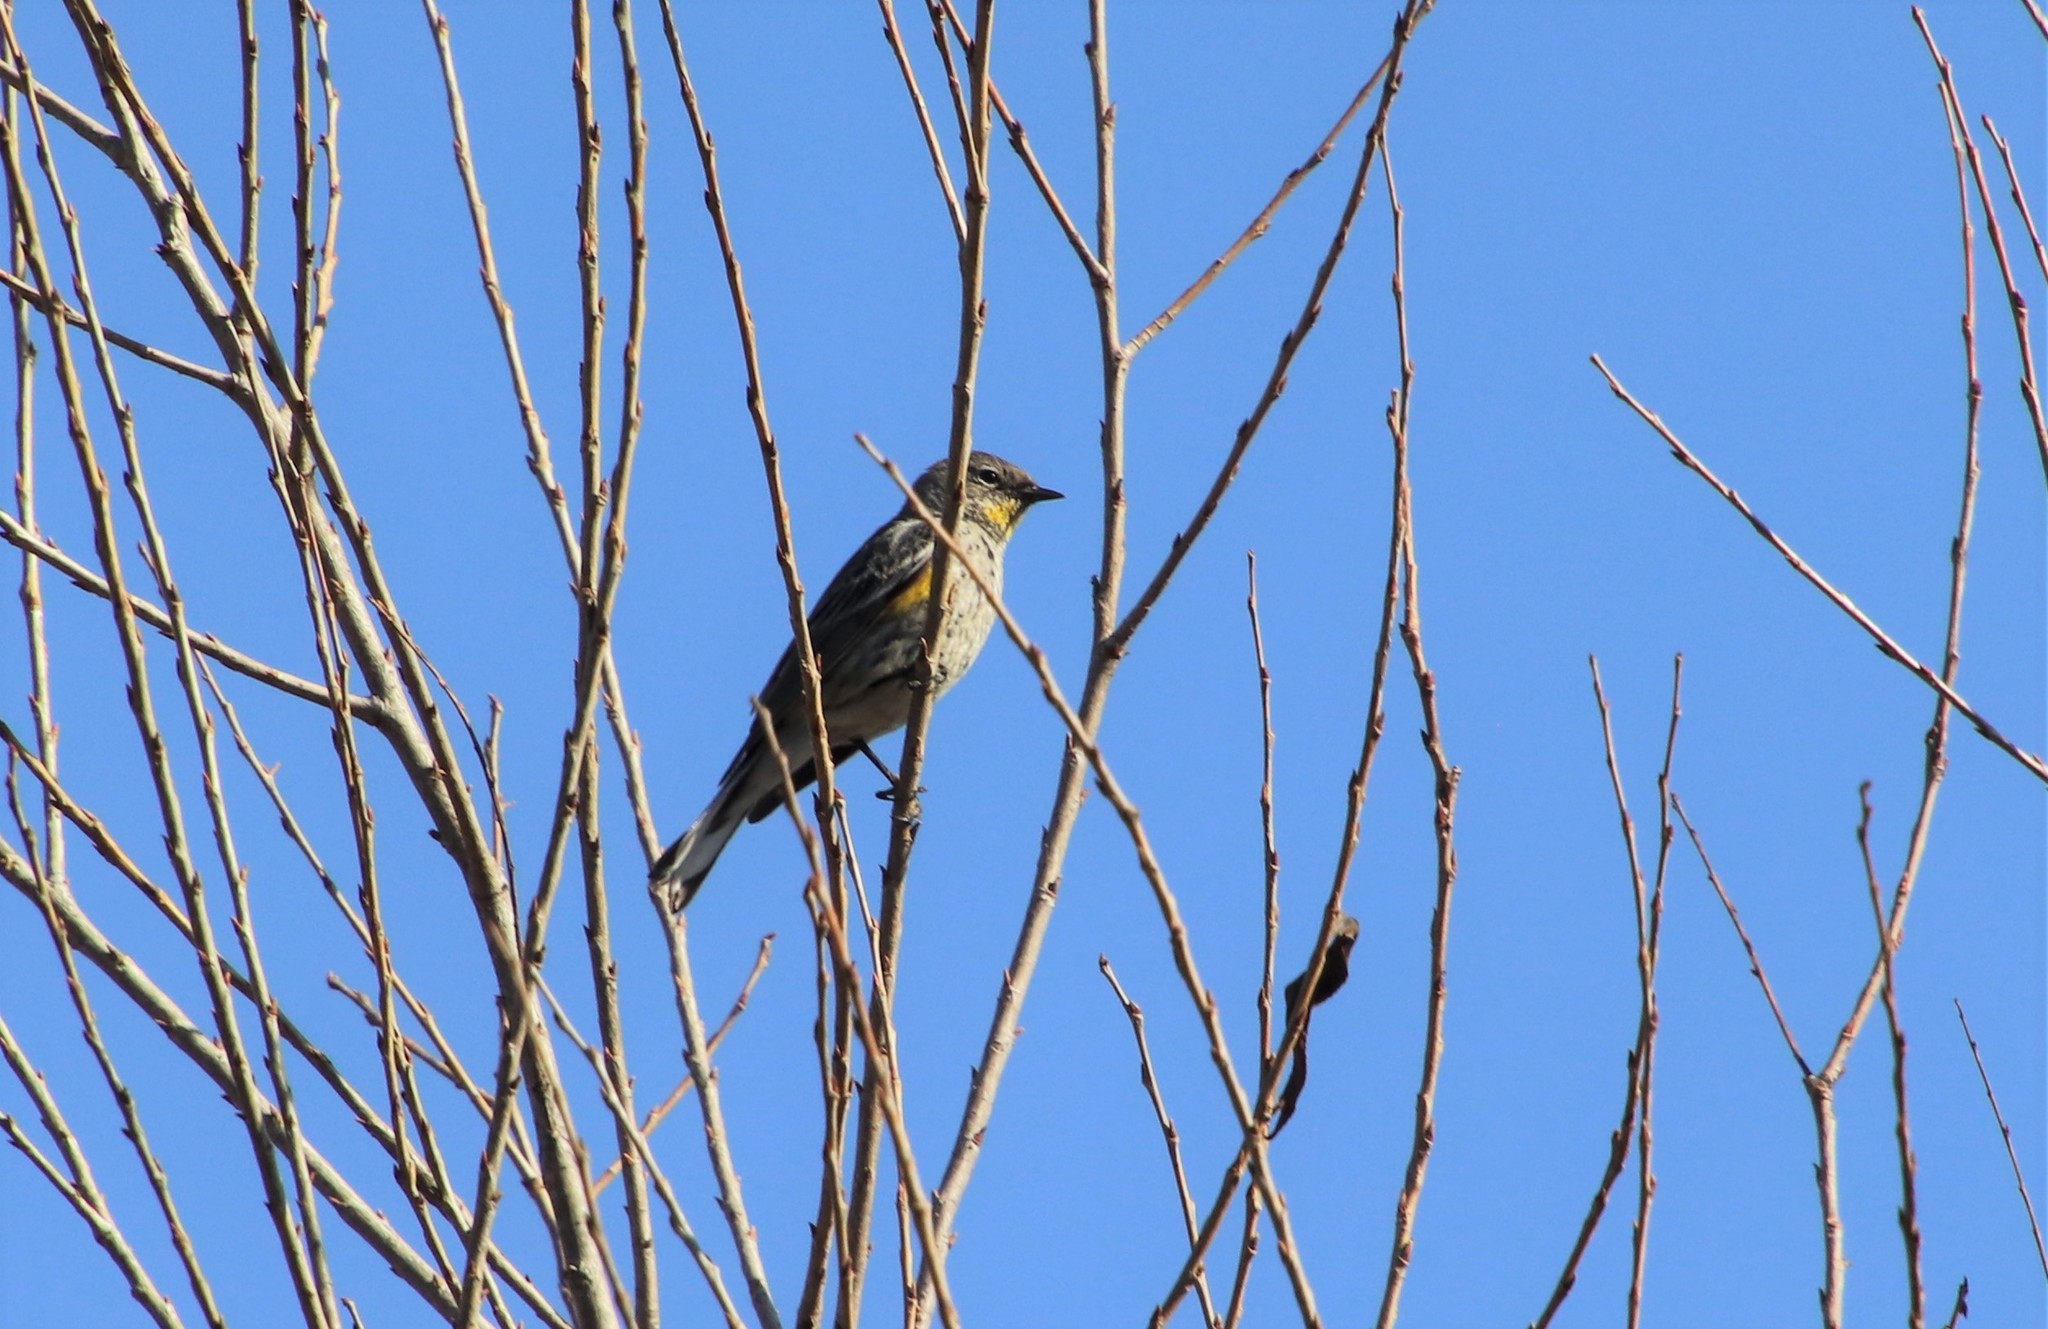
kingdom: Animalia
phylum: Chordata
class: Aves
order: Passeriformes
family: Parulidae
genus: Setophaga
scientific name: Setophaga auduboni
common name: Audubon's warbler
